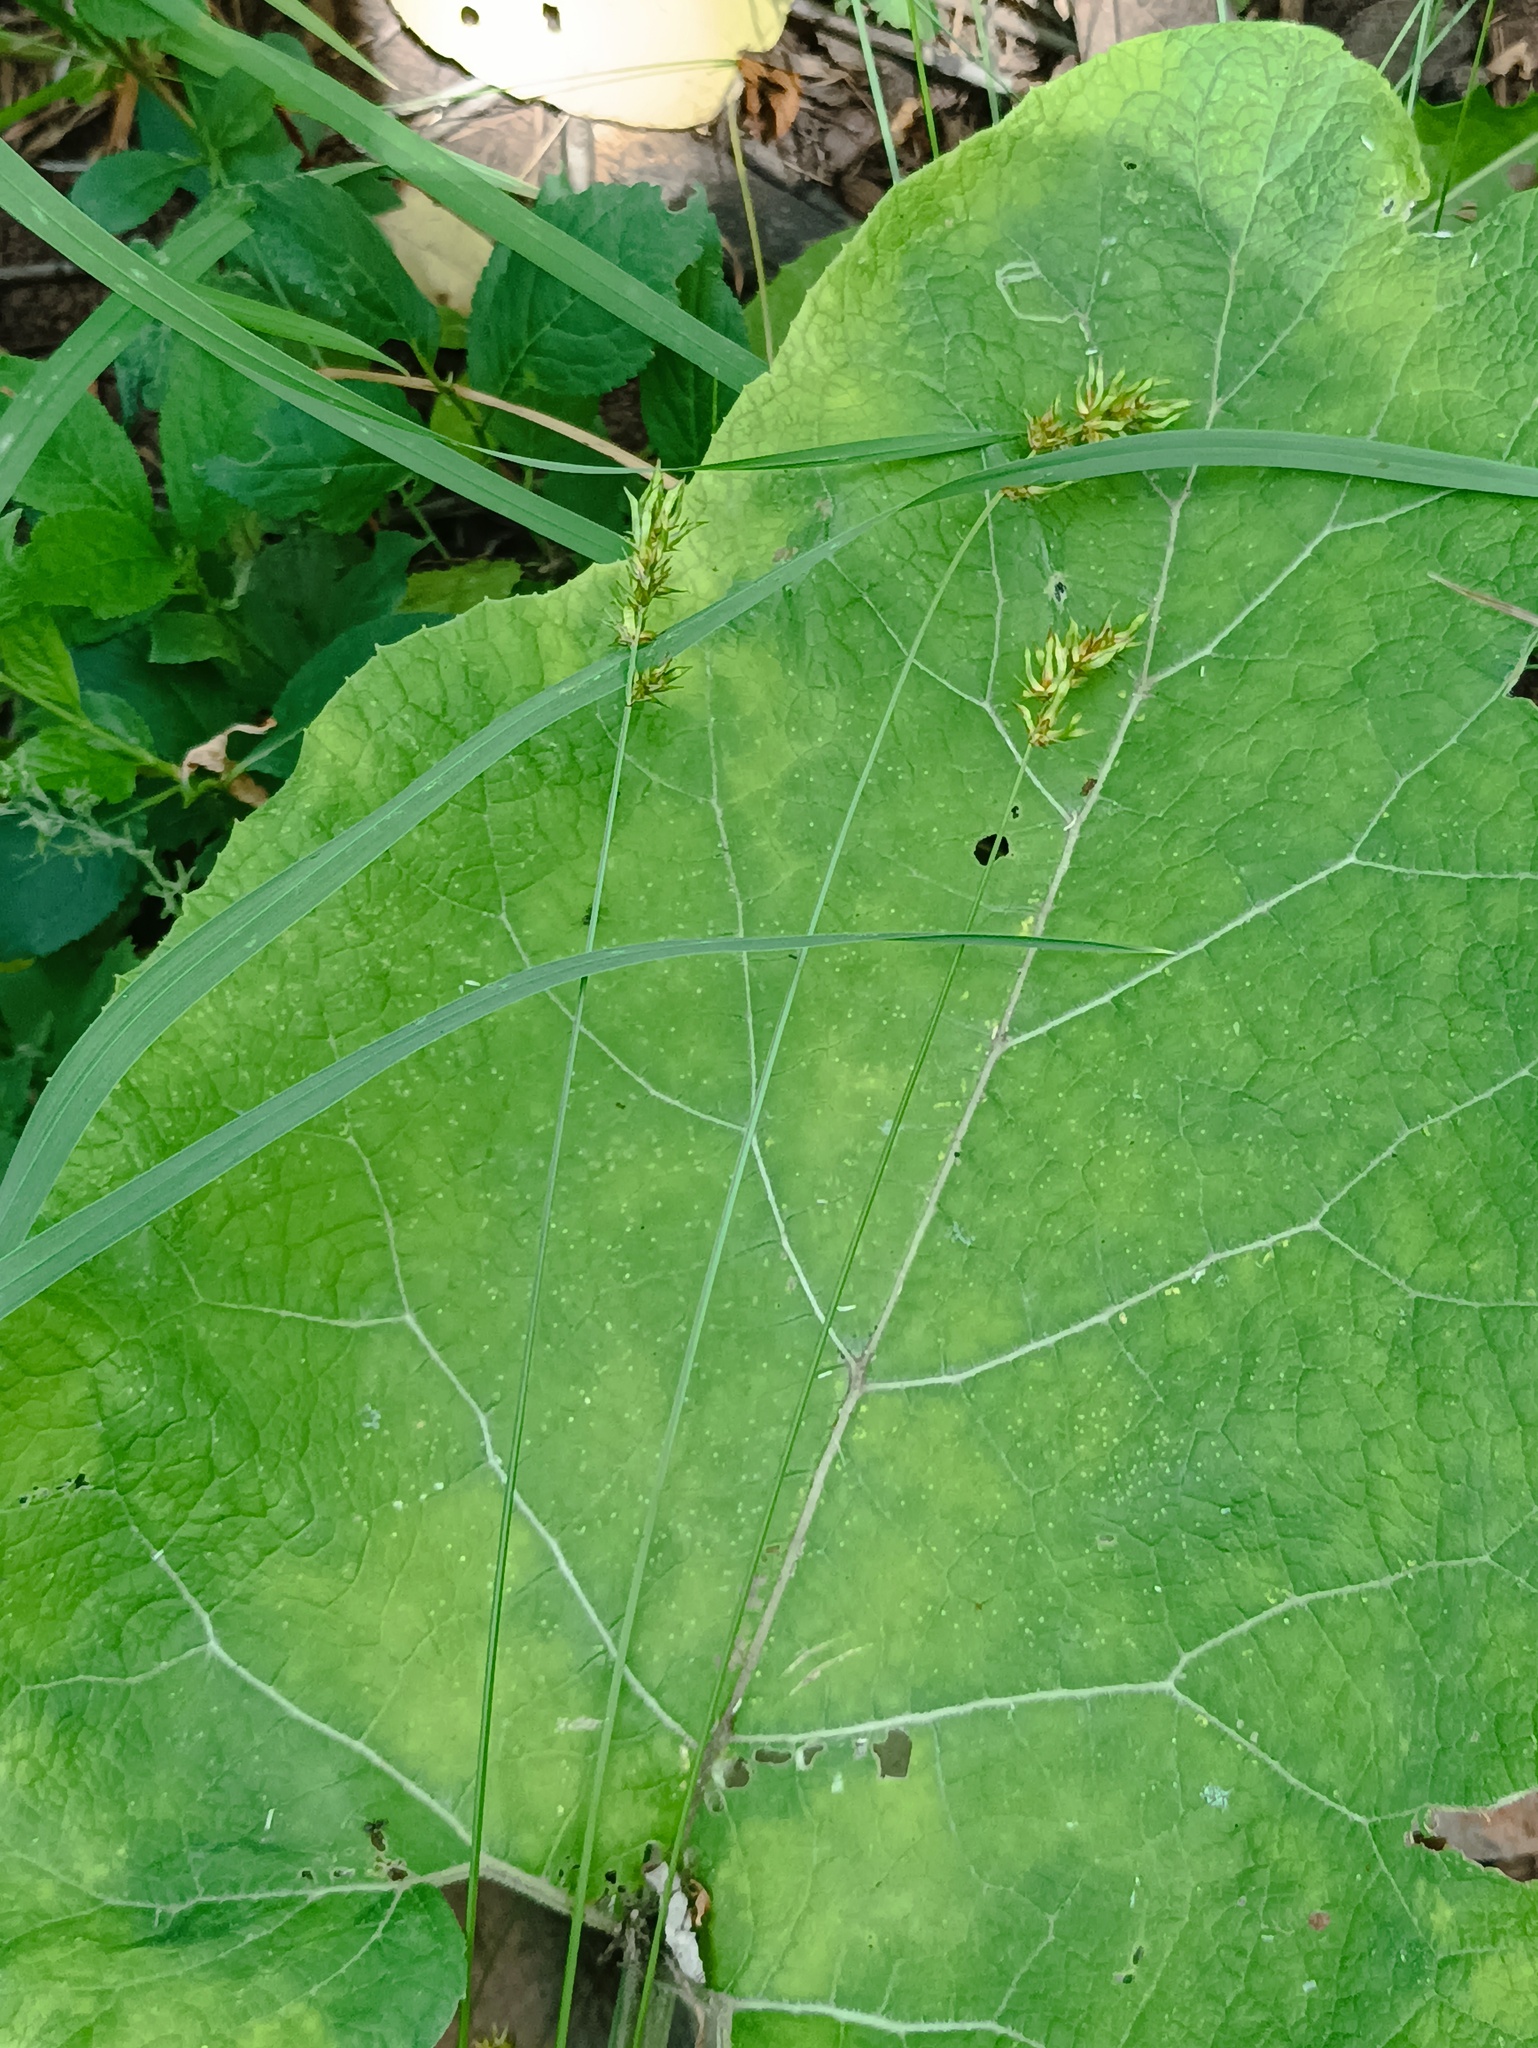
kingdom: Plantae
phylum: Tracheophyta
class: Liliopsida
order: Poales
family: Cyperaceae
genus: Carex
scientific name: Carex spicata
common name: Spiked sedge
